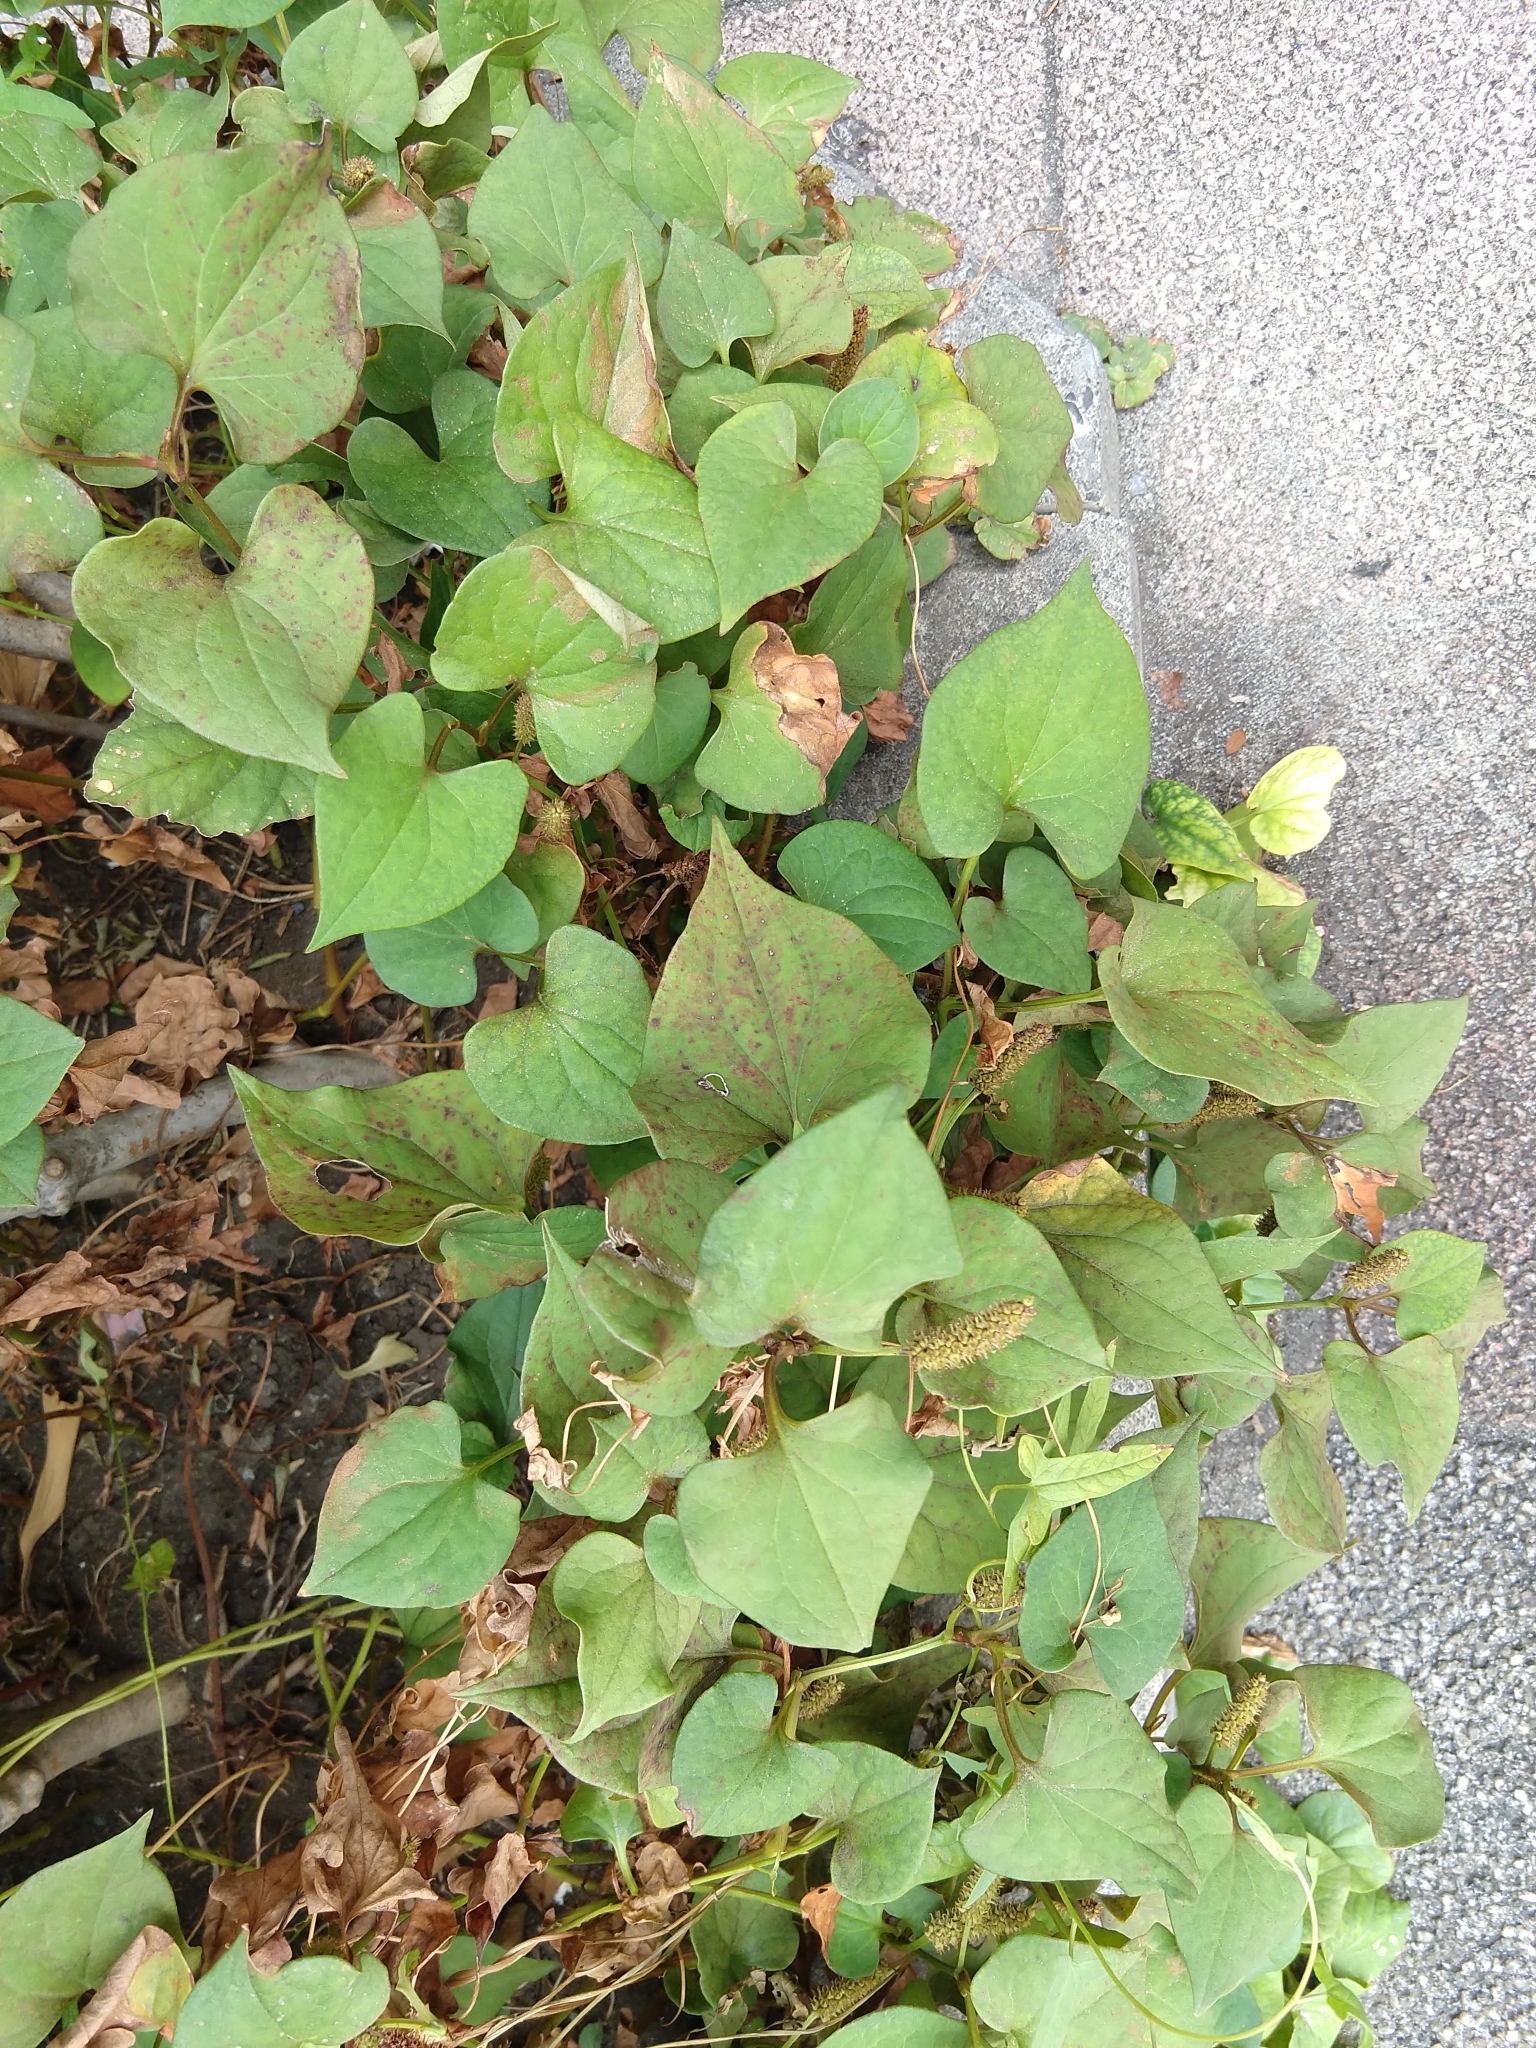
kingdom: Plantae
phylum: Tracheophyta
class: Magnoliopsida
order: Piperales
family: Saururaceae
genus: Houttuynia
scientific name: Houttuynia cordata
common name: Chameleon
